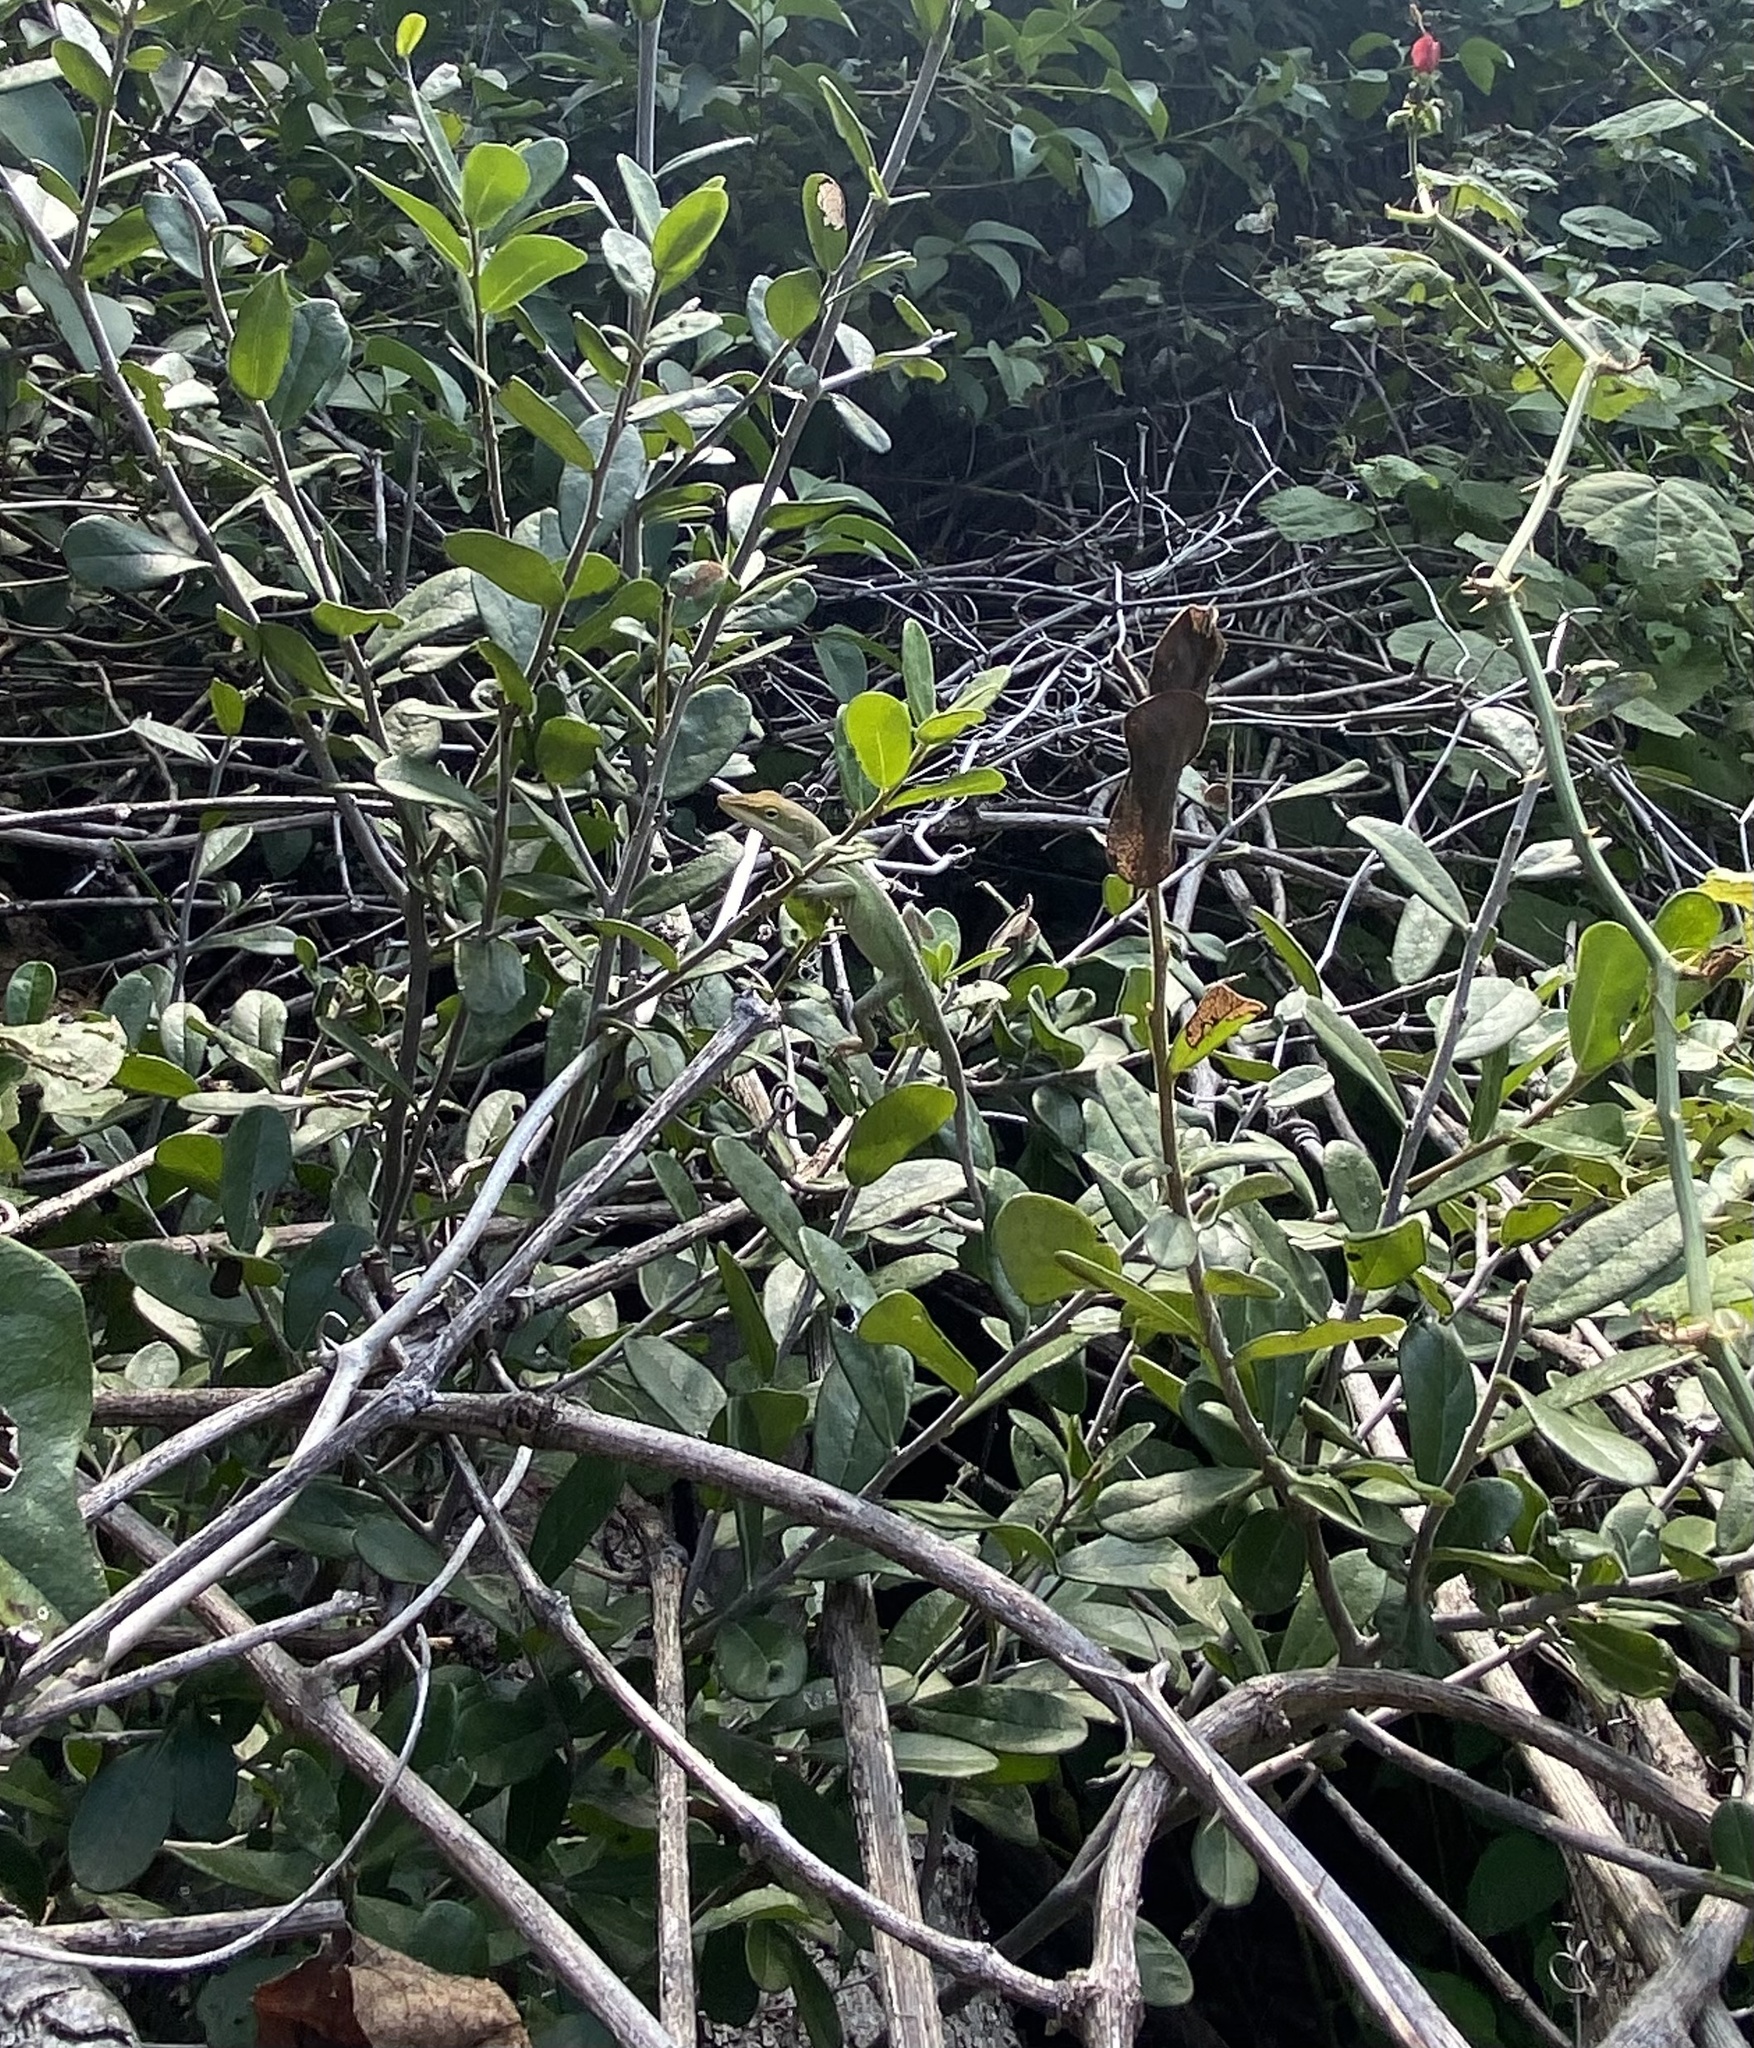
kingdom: Animalia
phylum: Chordata
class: Squamata
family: Dactyloidae
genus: Anolis
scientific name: Anolis carolinensis
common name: Green anole
